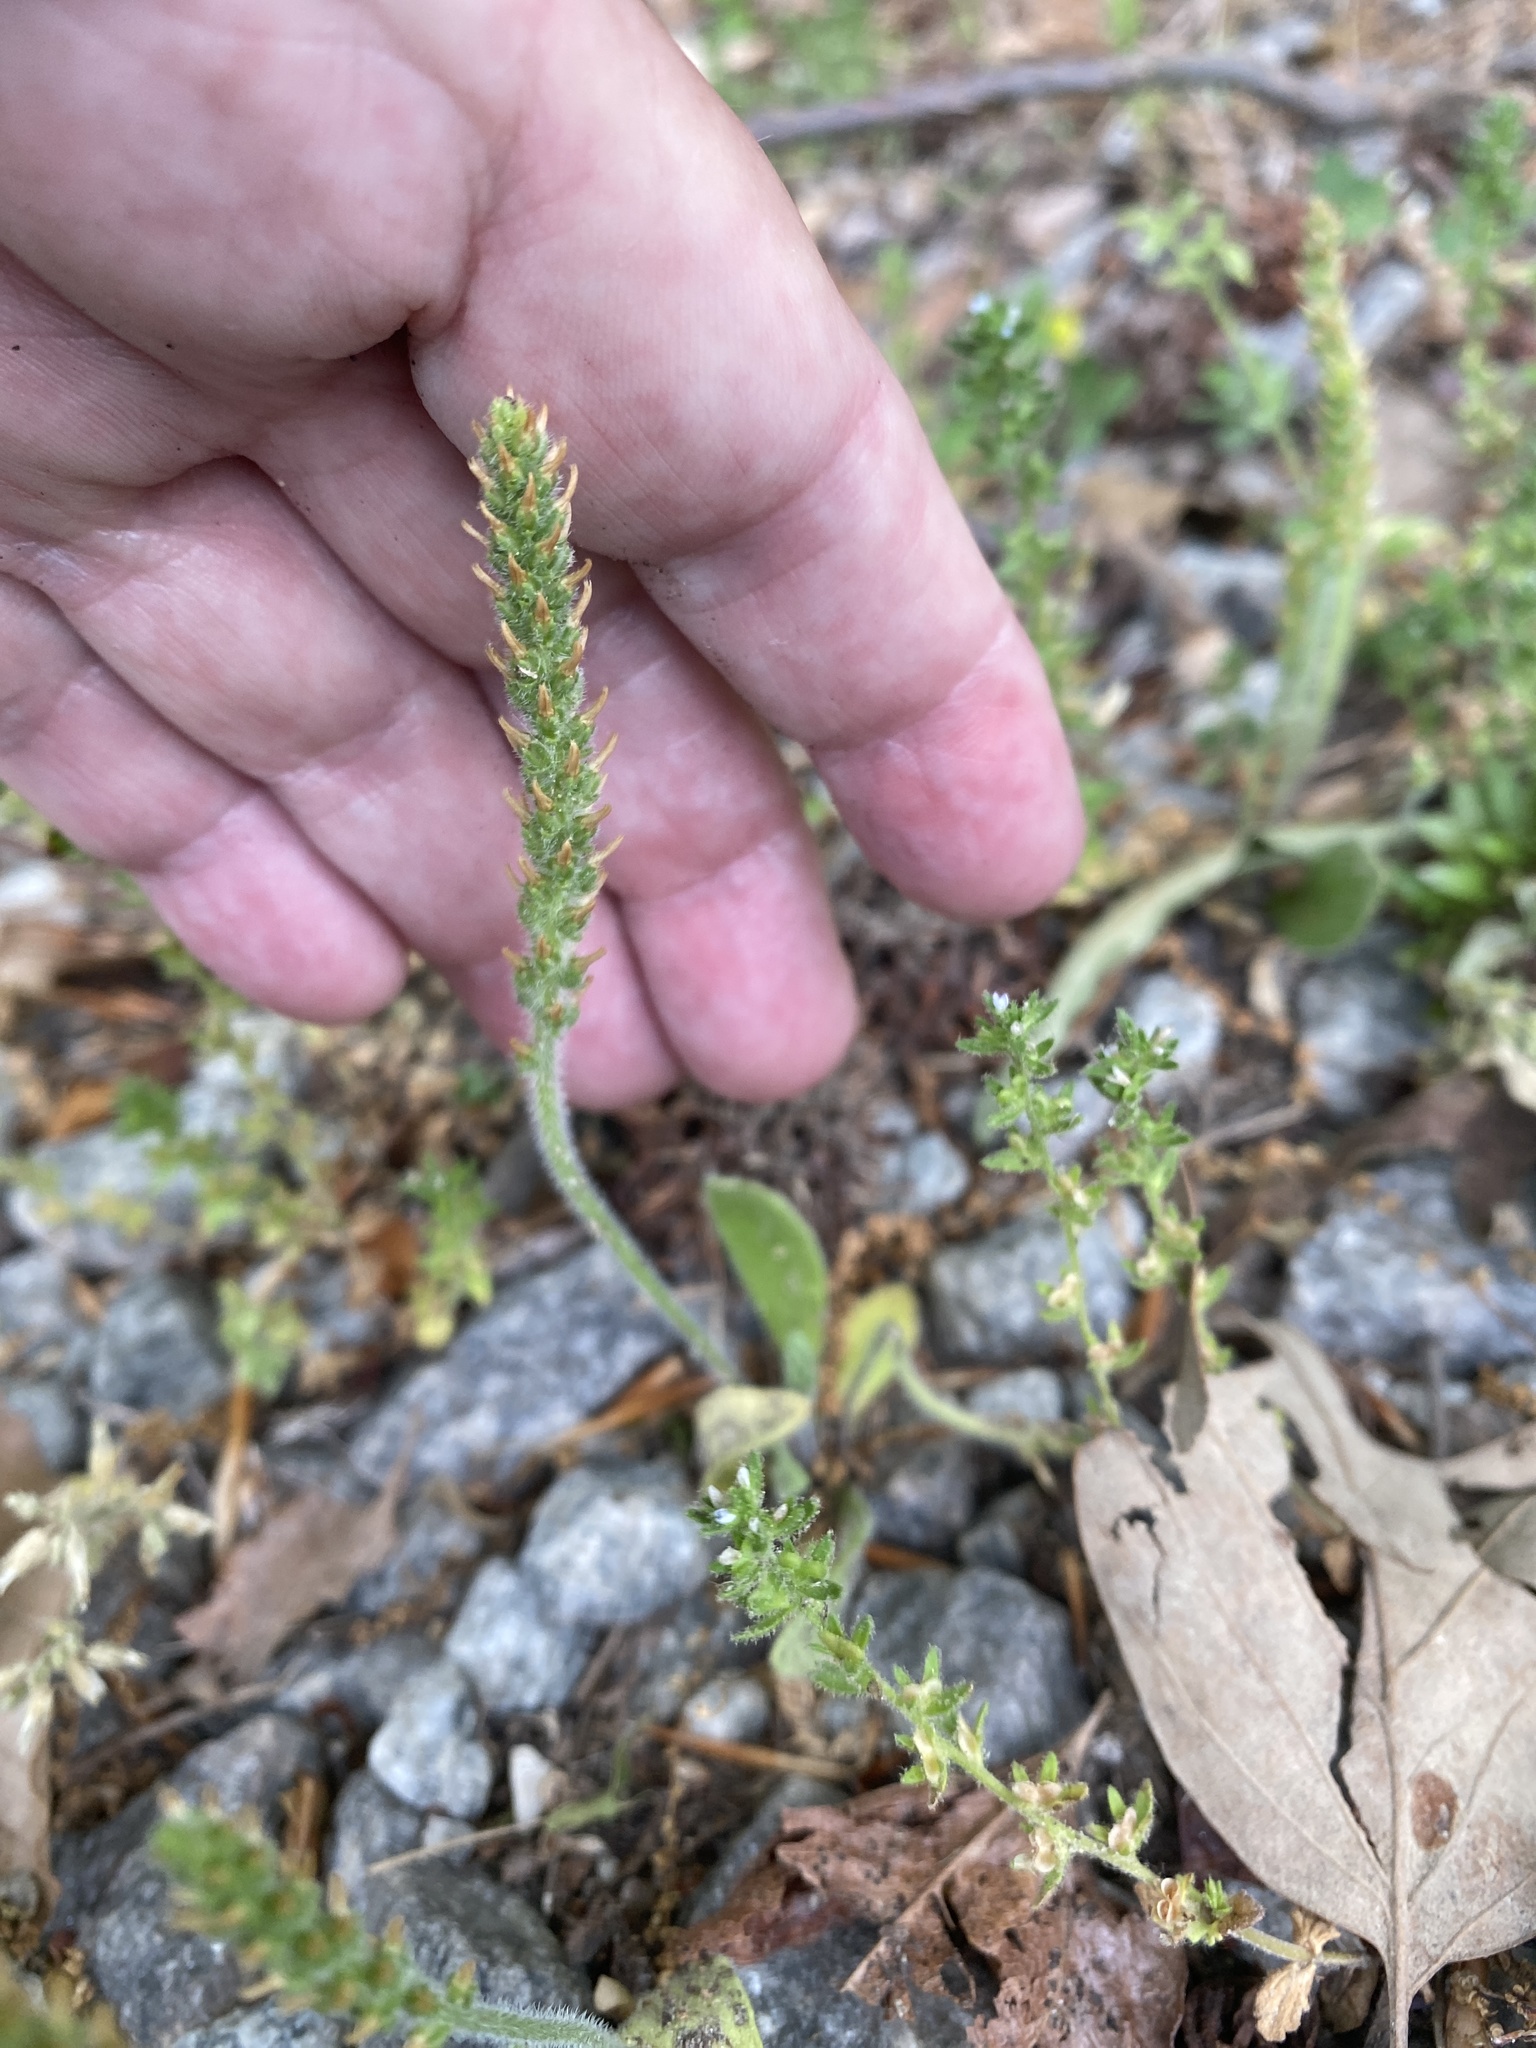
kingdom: Plantae
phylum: Tracheophyta
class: Magnoliopsida
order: Lamiales
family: Plantaginaceae
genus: Plantago
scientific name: Plantago virginica
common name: Hoary plantain
